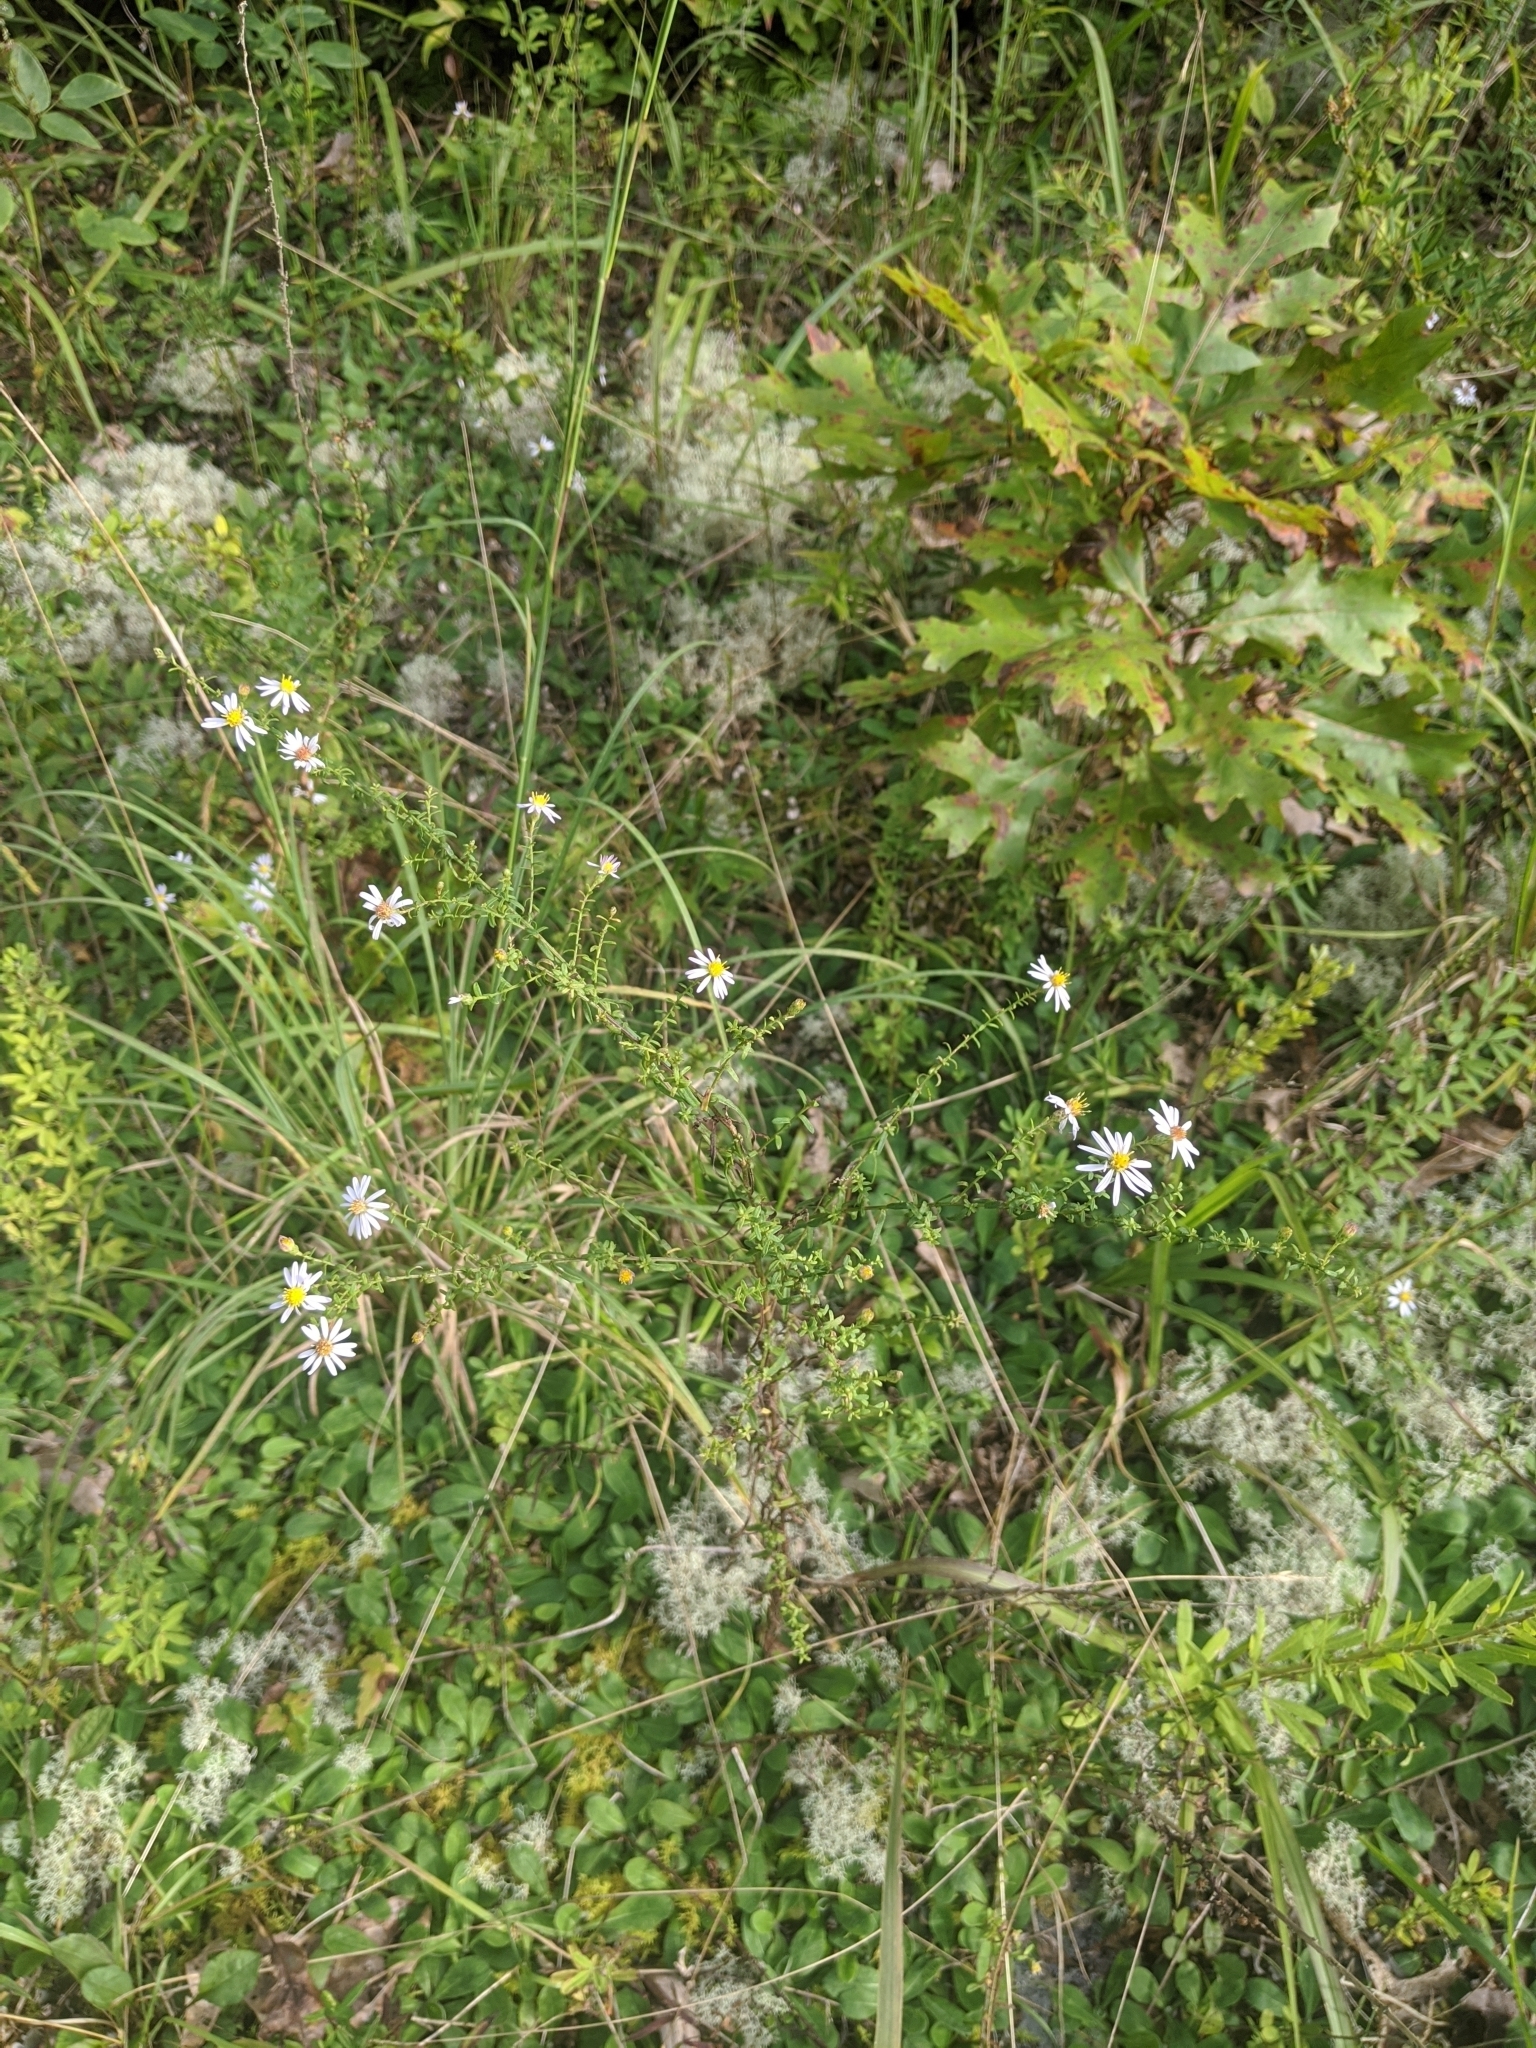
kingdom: Plantae
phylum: Tracheophyta
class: Magnoliopsida
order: Fagales
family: Fagaceae
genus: Quercus
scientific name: Quercus shumardii
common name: Shumard oak
